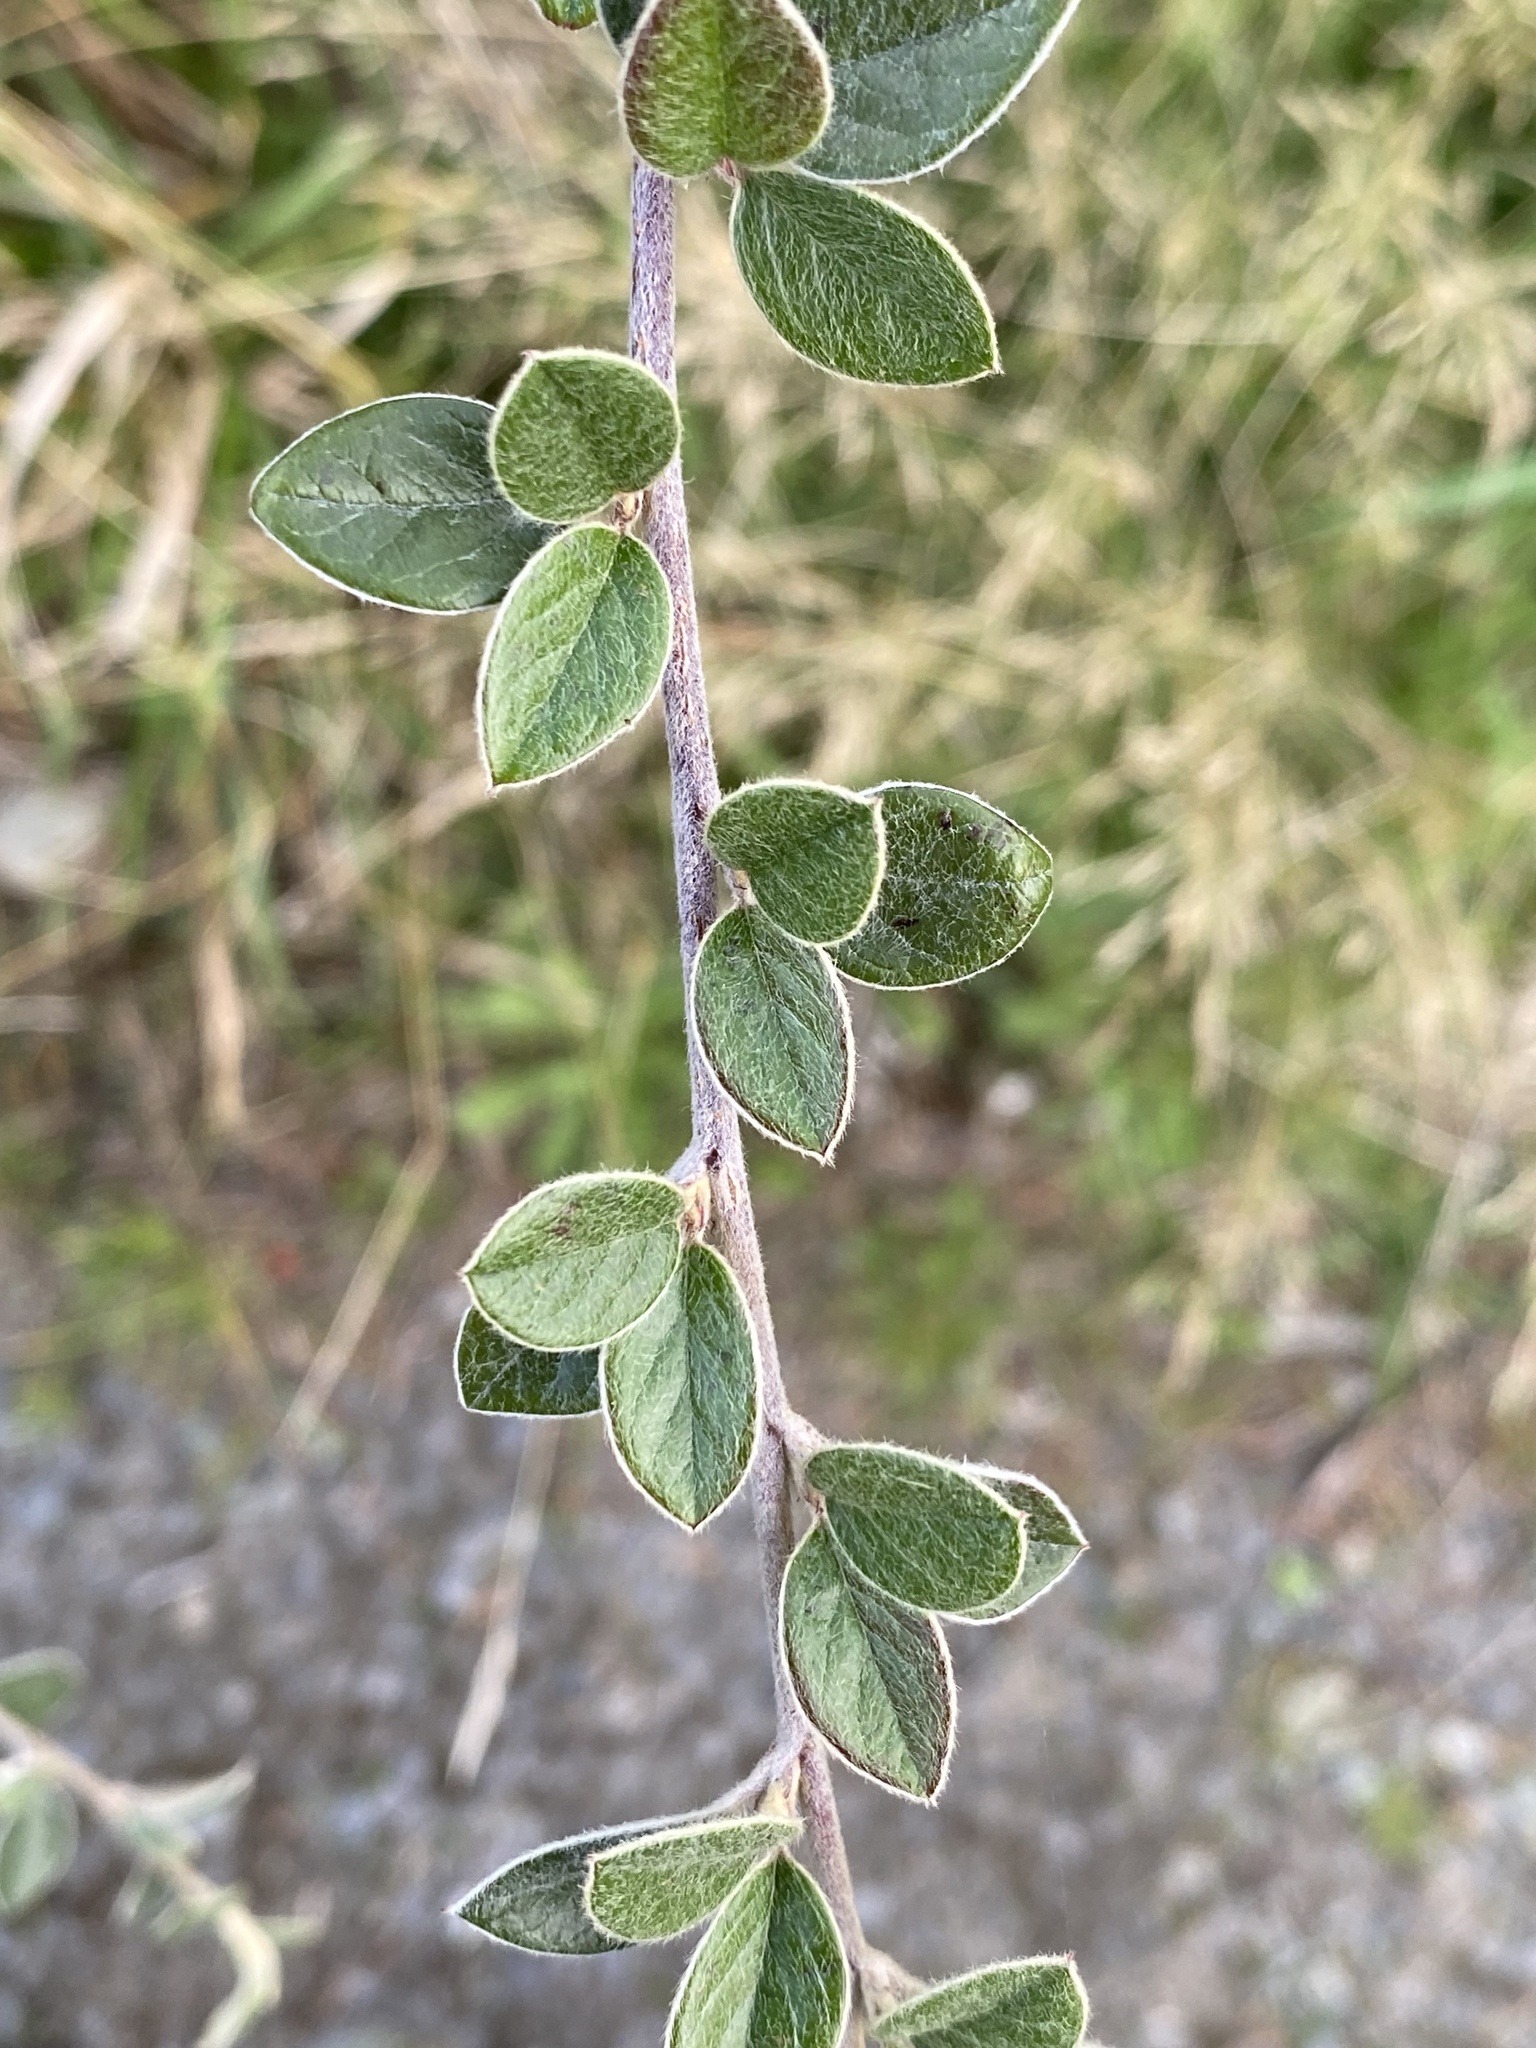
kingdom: Plantae
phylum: Tracheophyta
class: Magnoliopsida
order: Rosales
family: Rosaceae
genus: Cotoneaster
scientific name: Cotoneaster franchetii
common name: Franchet's cotoneaster
